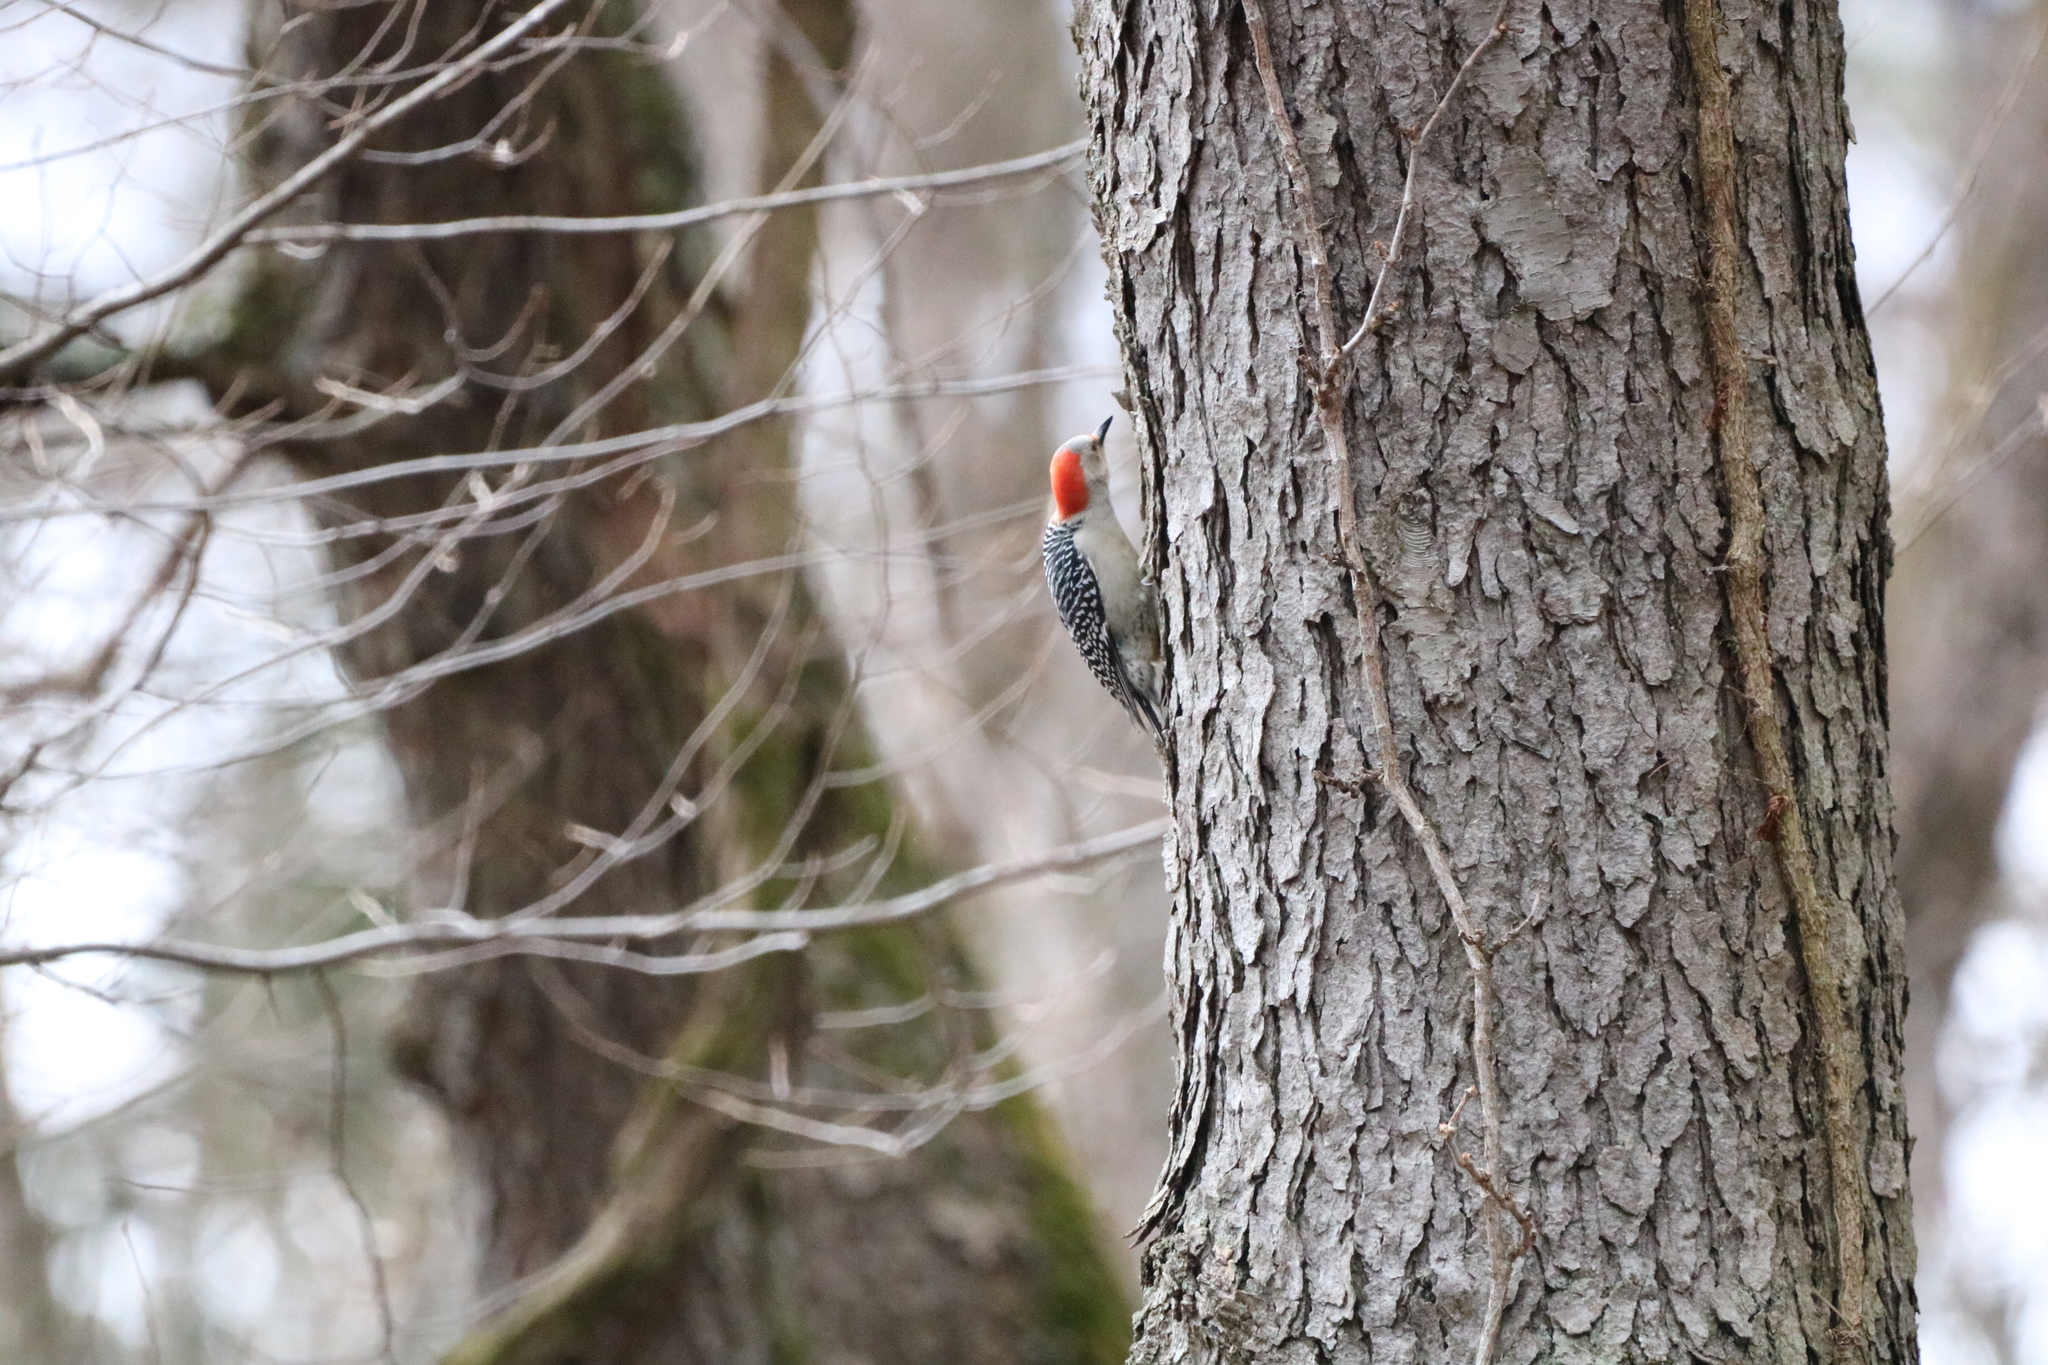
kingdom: Animalia
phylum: Chordata
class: Aves
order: Piciformes
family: Picidae
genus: Melanerpes
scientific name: Melanerpes carolinus
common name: Red-bellied woodpecker
